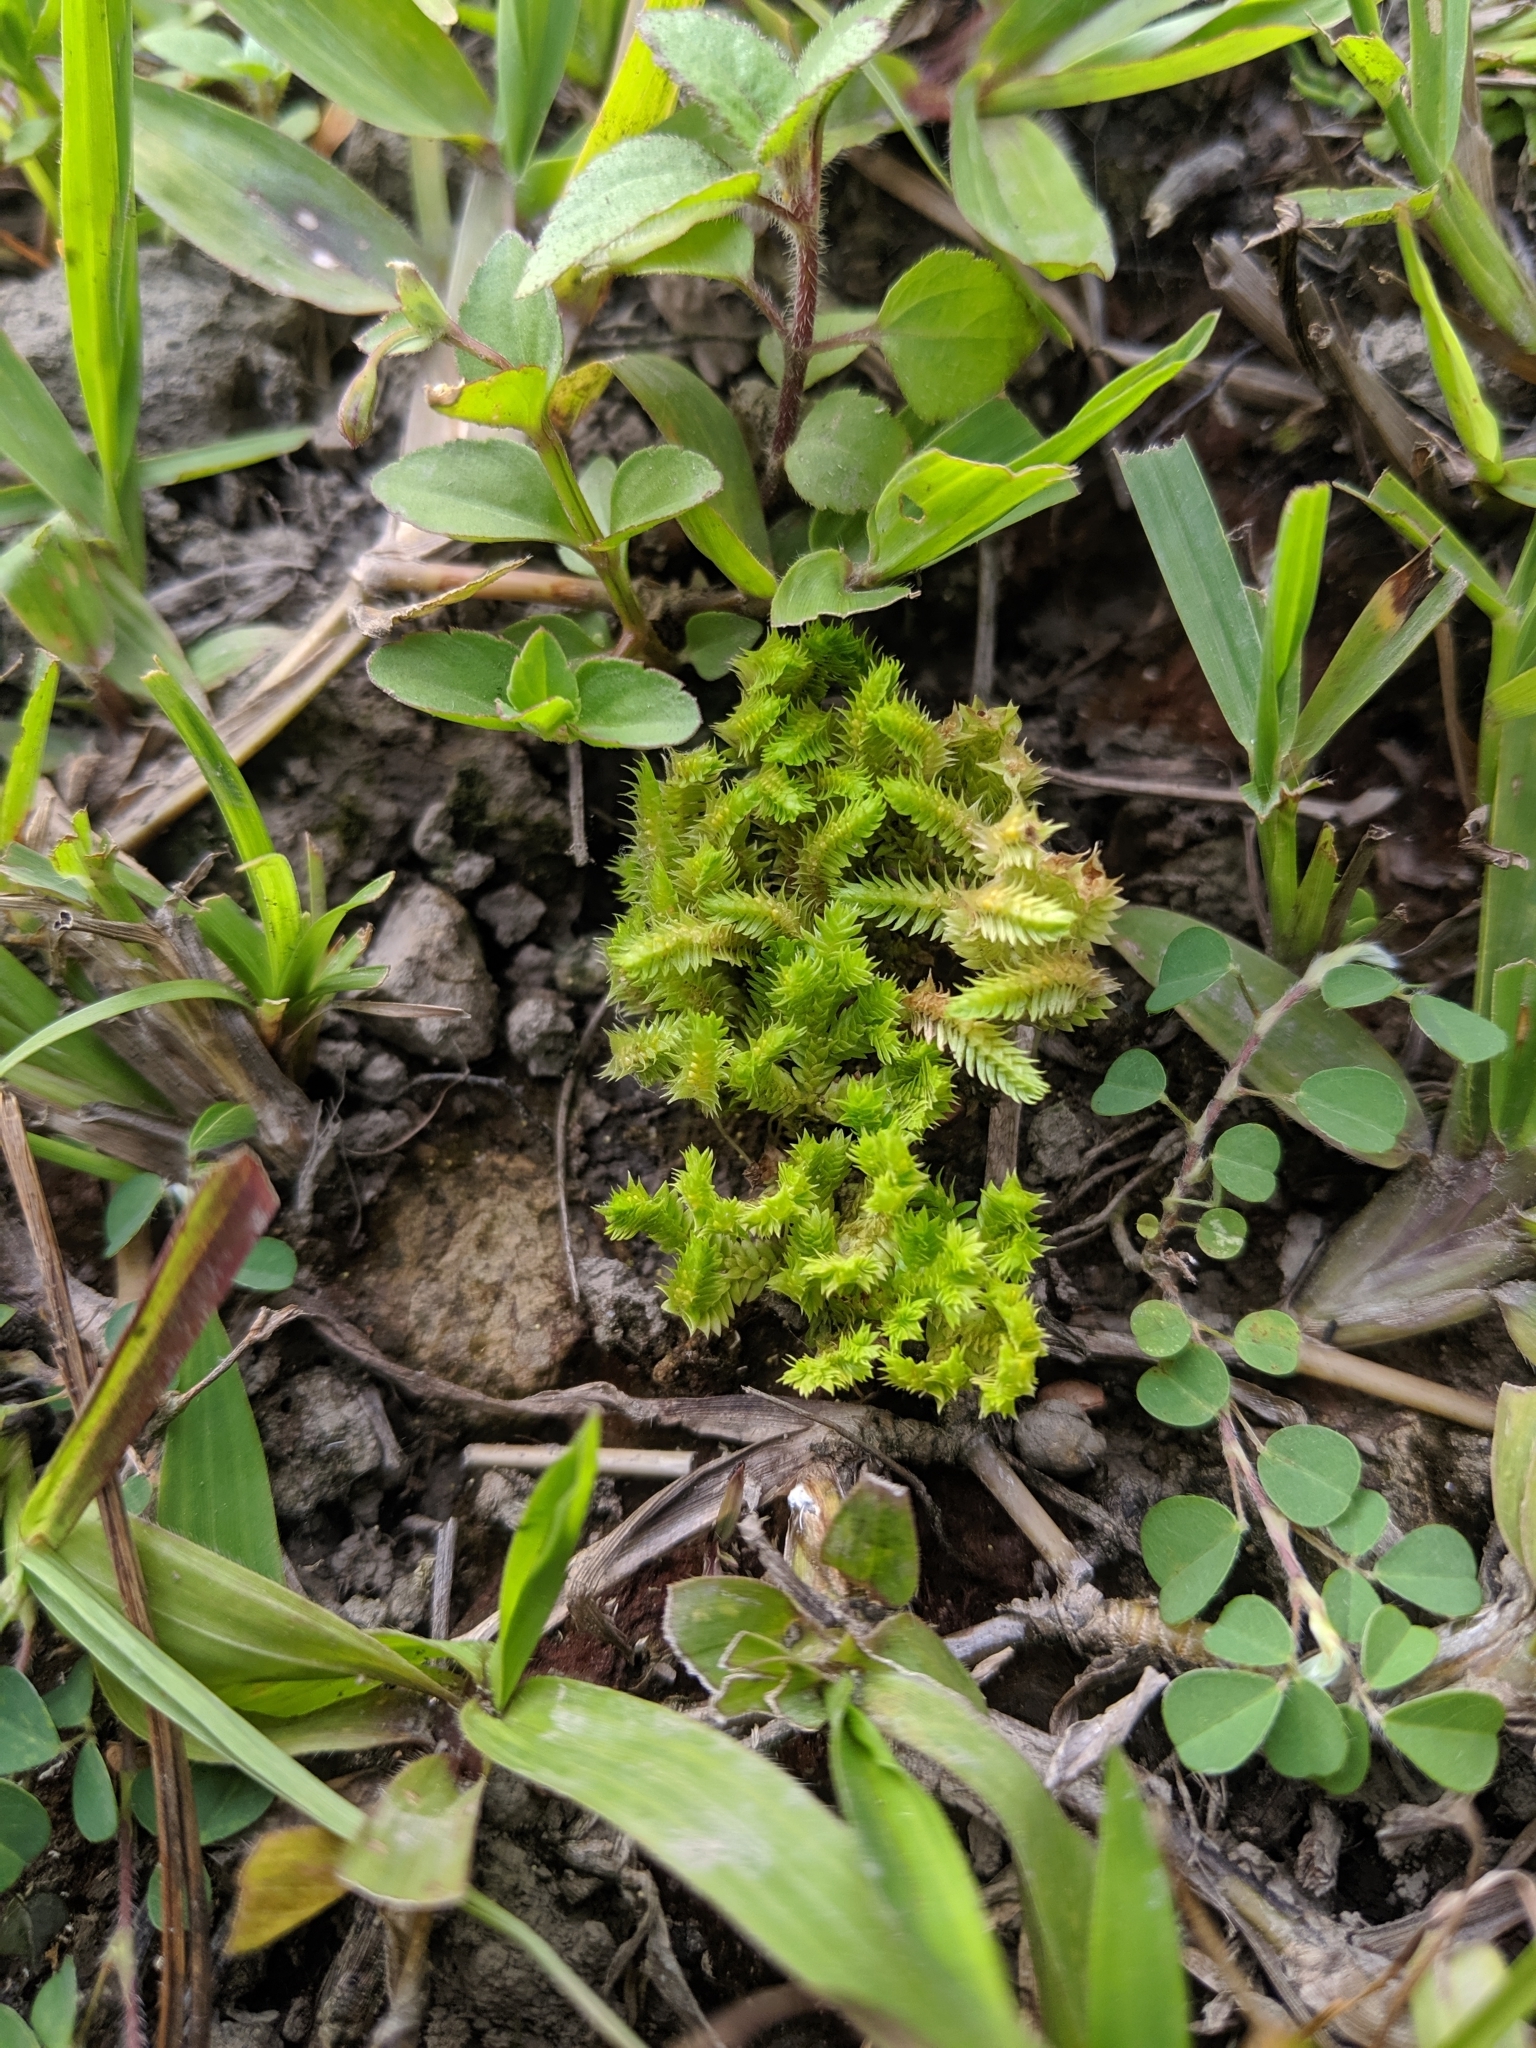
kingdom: Plantae
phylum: Tracheophyta
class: Lycopodiopsida
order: Selaginellales
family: Selaginellaceae
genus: Selaginella
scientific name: Selaginella ciliaris
